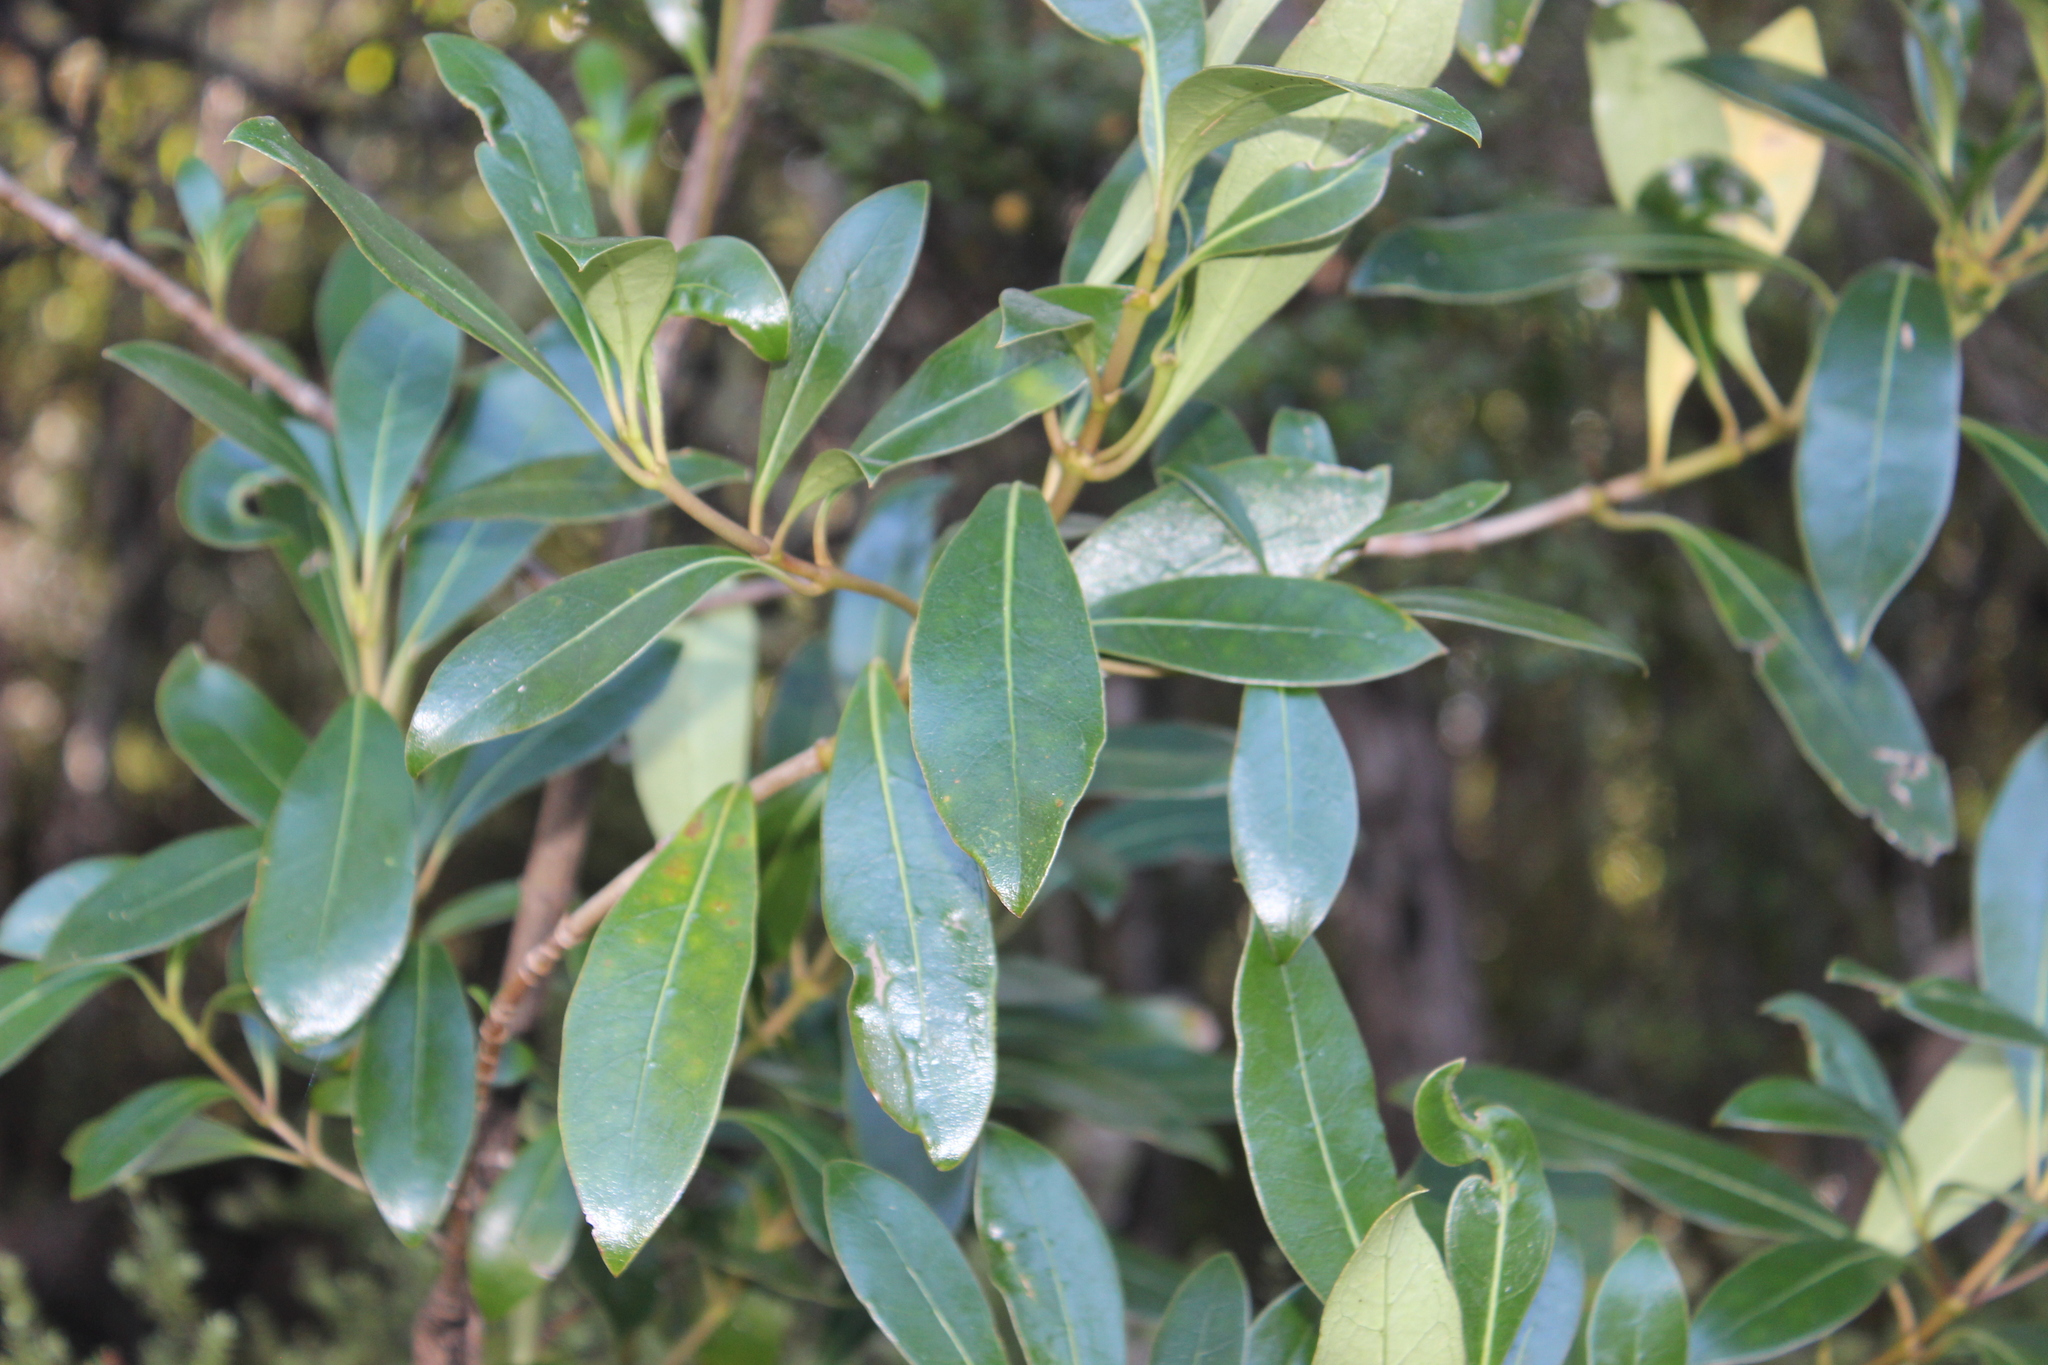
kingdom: Plantae
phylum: Tracheophyta
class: Magnoliopsida
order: Gentianales
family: Rubiaceae
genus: Coprosma
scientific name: Coprosma lucida
